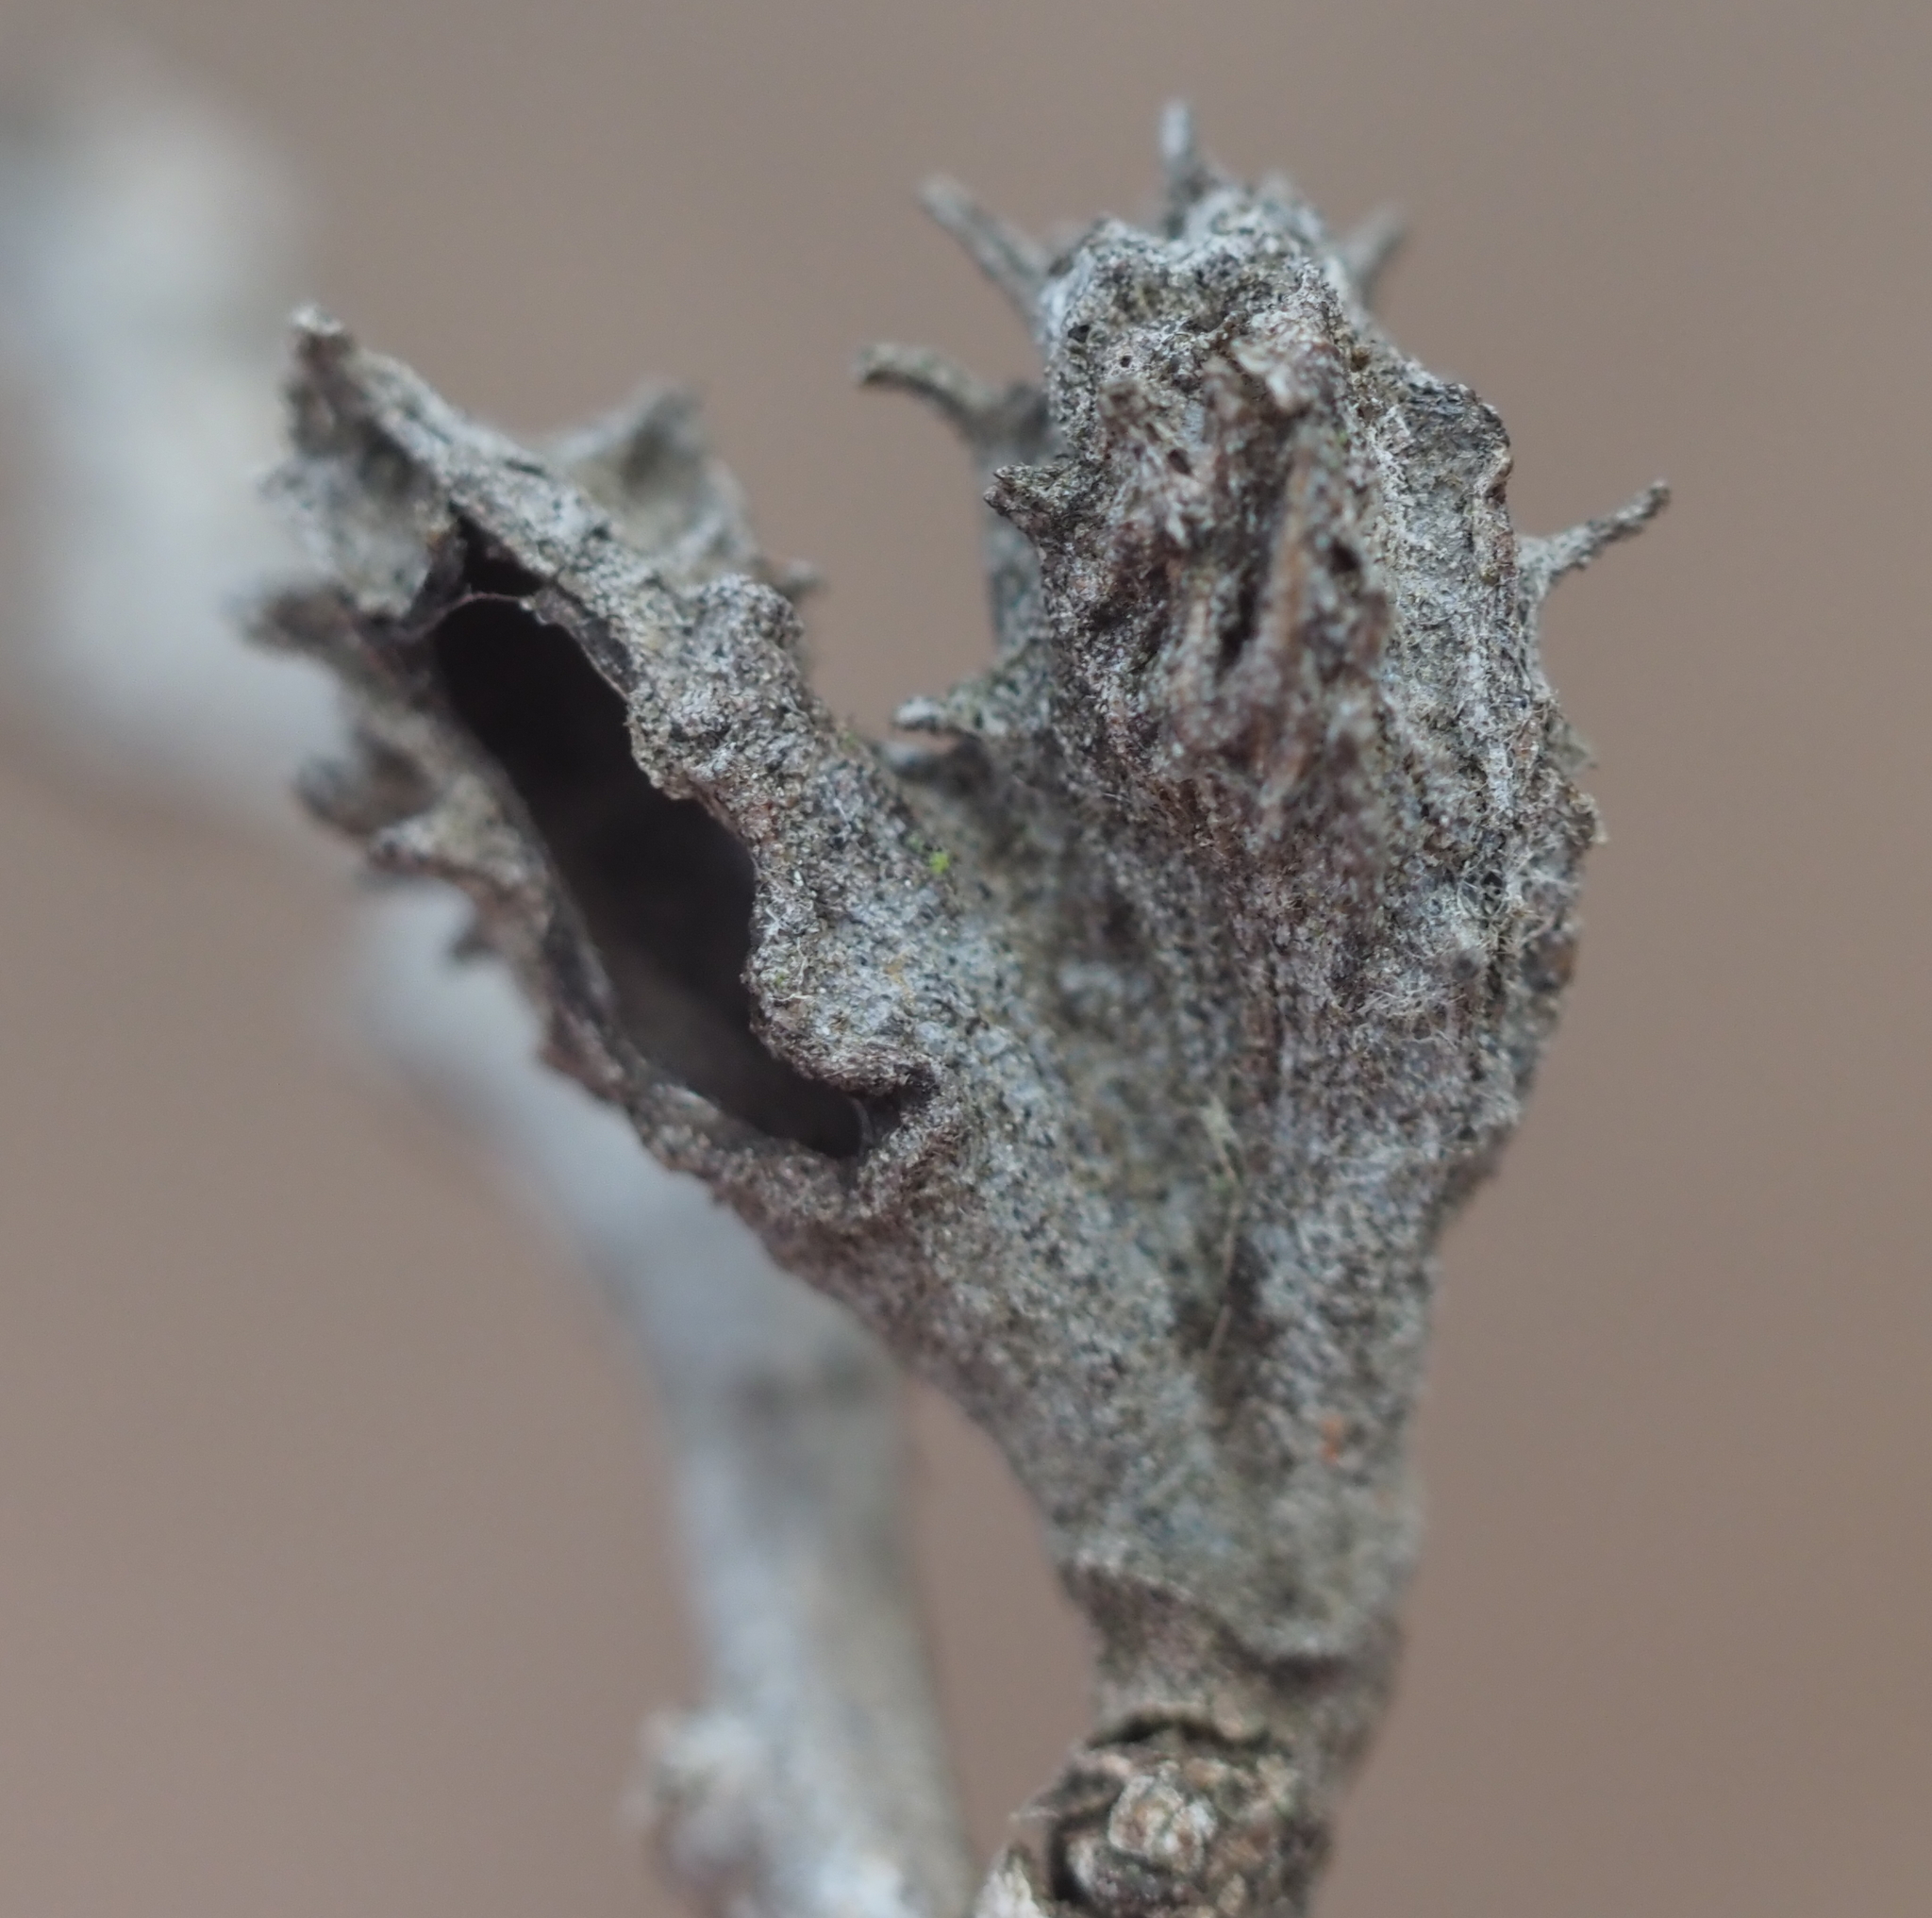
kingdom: Animalia
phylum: Arthropoda
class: Insecta
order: Hemiptera
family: Aphididae
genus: Hamamelistes
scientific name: Hamamelistes spinosus
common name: Witch hazel gall aphid
